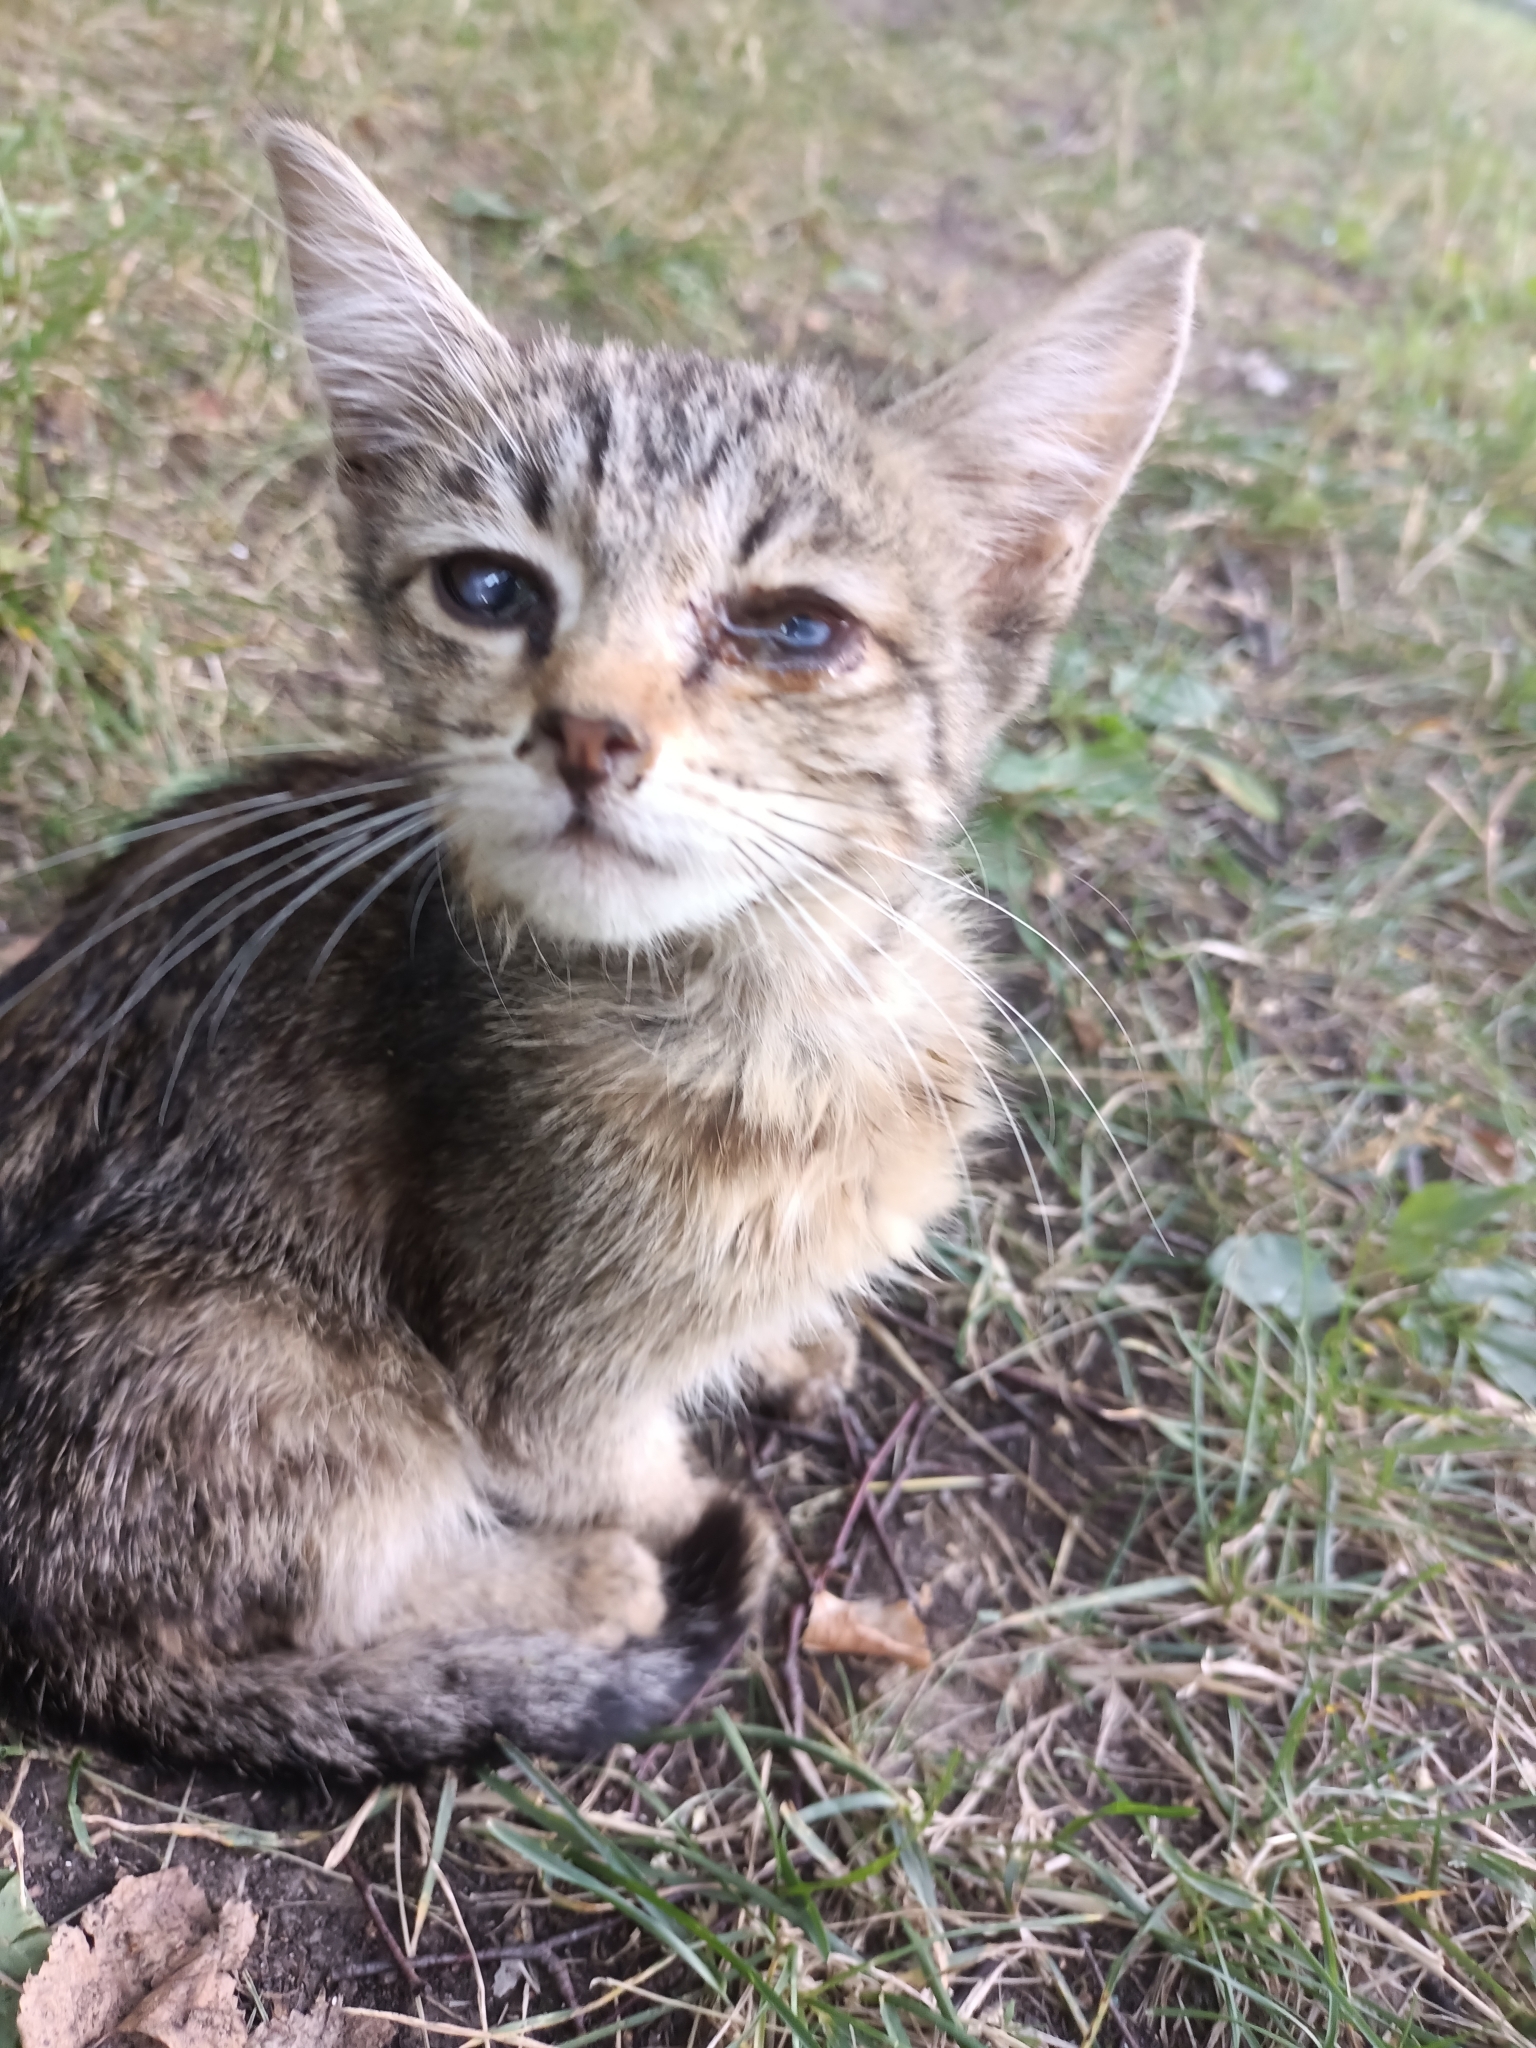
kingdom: Animalia
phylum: Chordata
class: Mammalia
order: Carnivora
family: Felidae
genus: Felis
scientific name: Felis catus
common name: Domestic cat
